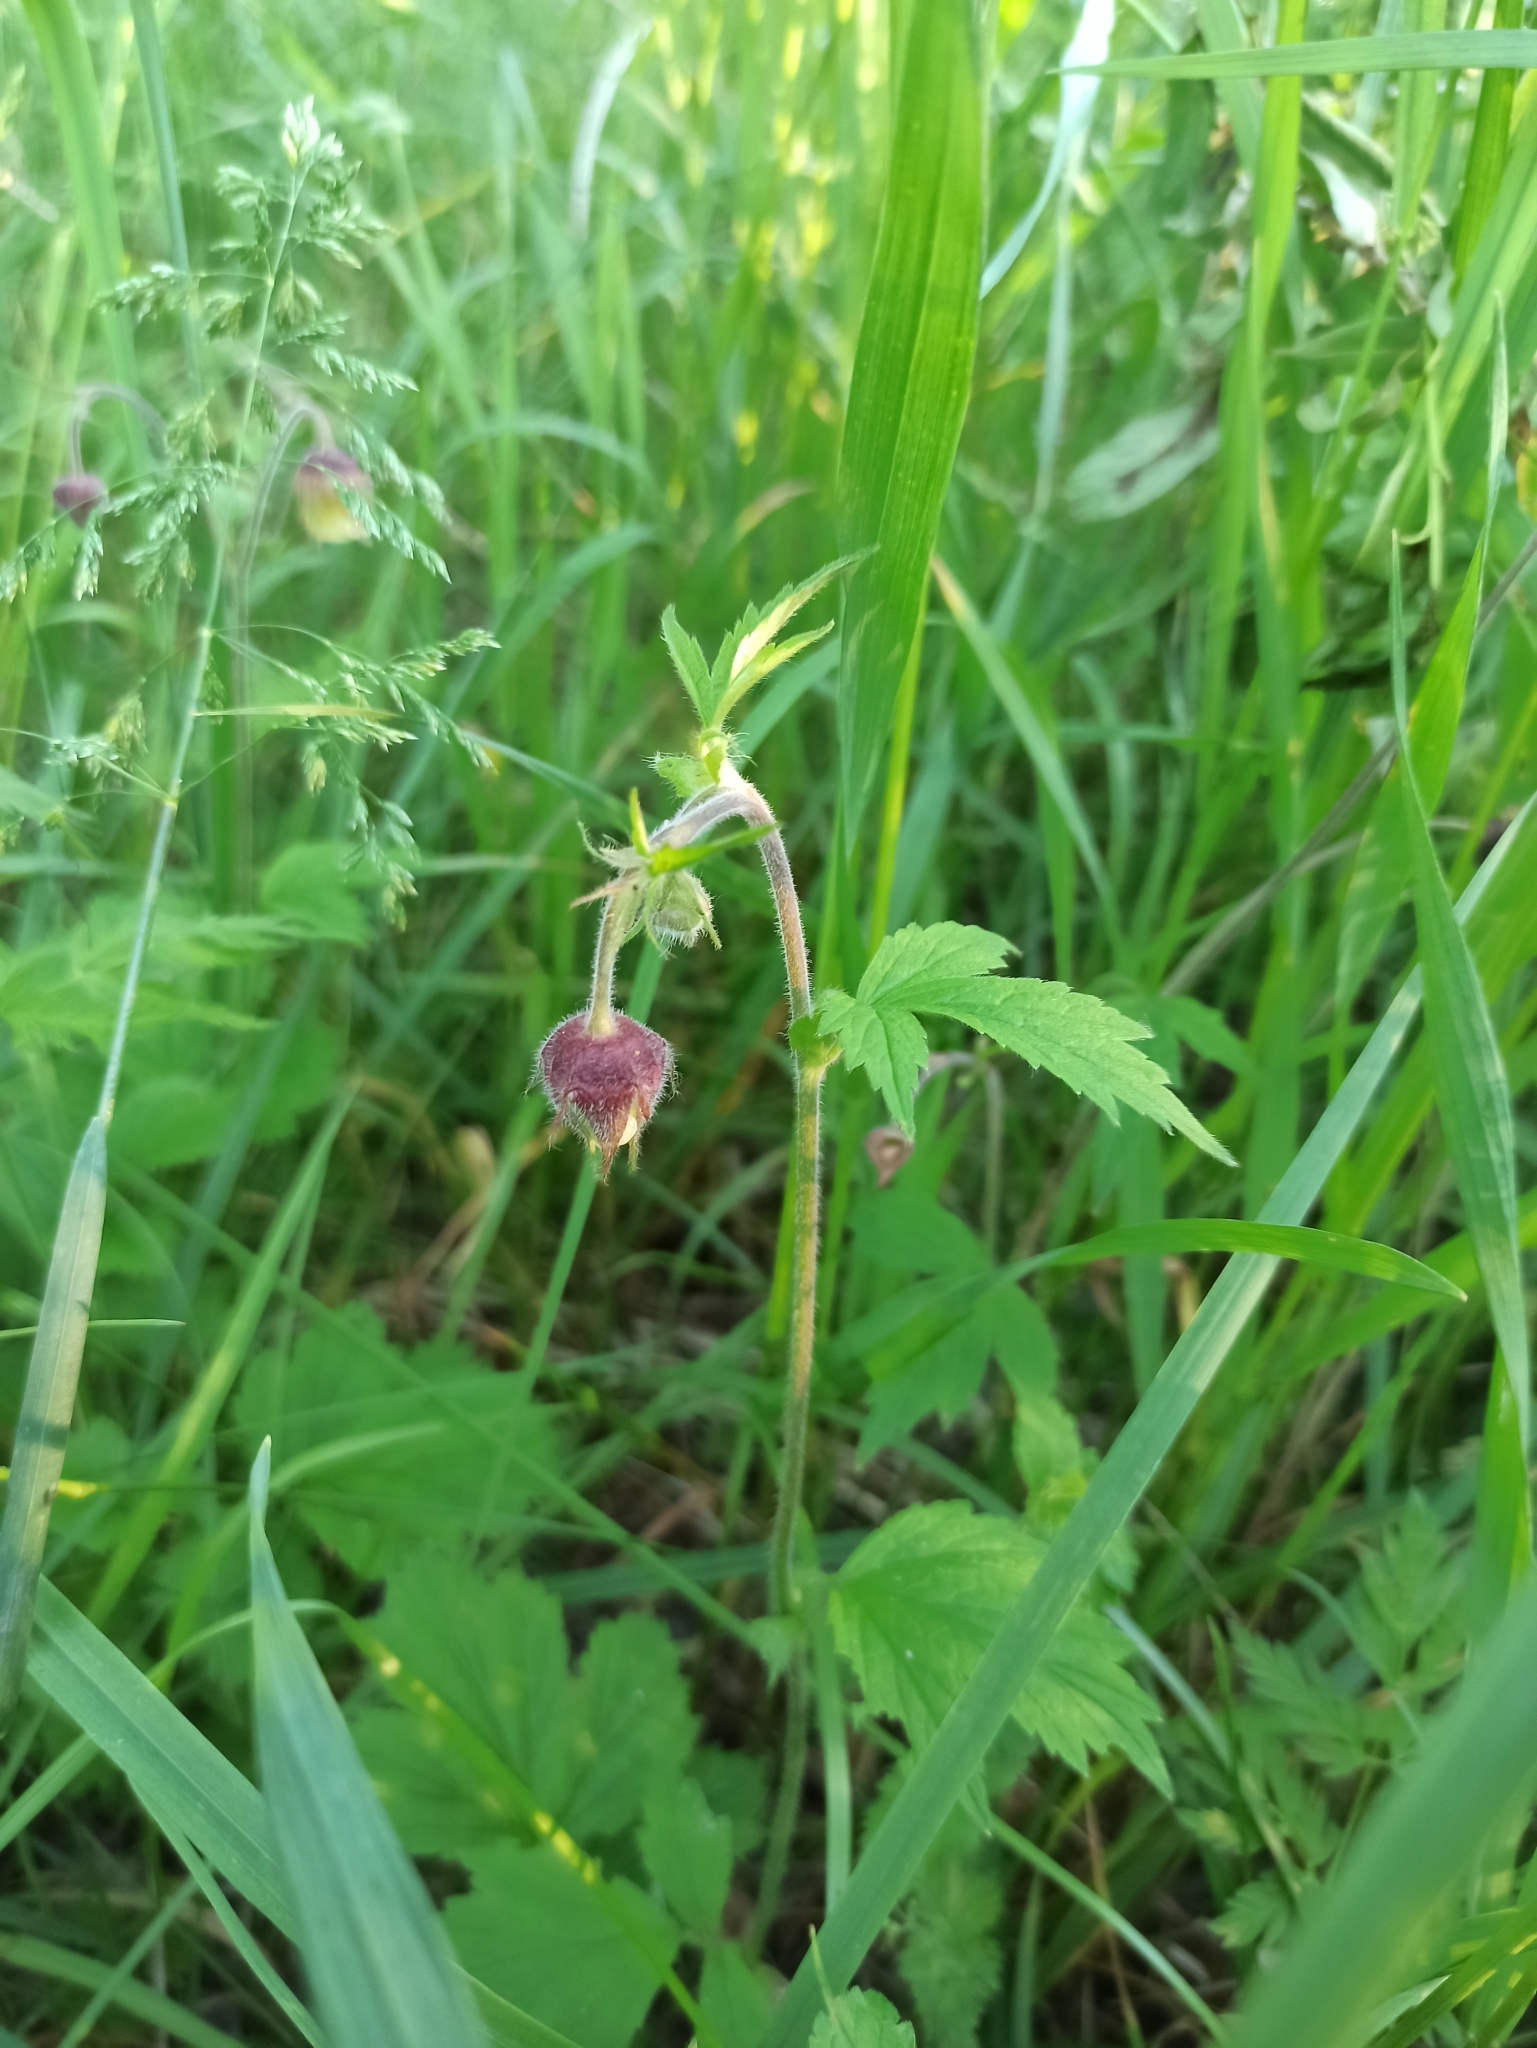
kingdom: Plantae
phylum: Tracheophyta
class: Magnoliopsida
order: Rosales
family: Rosaceae
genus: Geum
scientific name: Geum rivale
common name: Water avens
